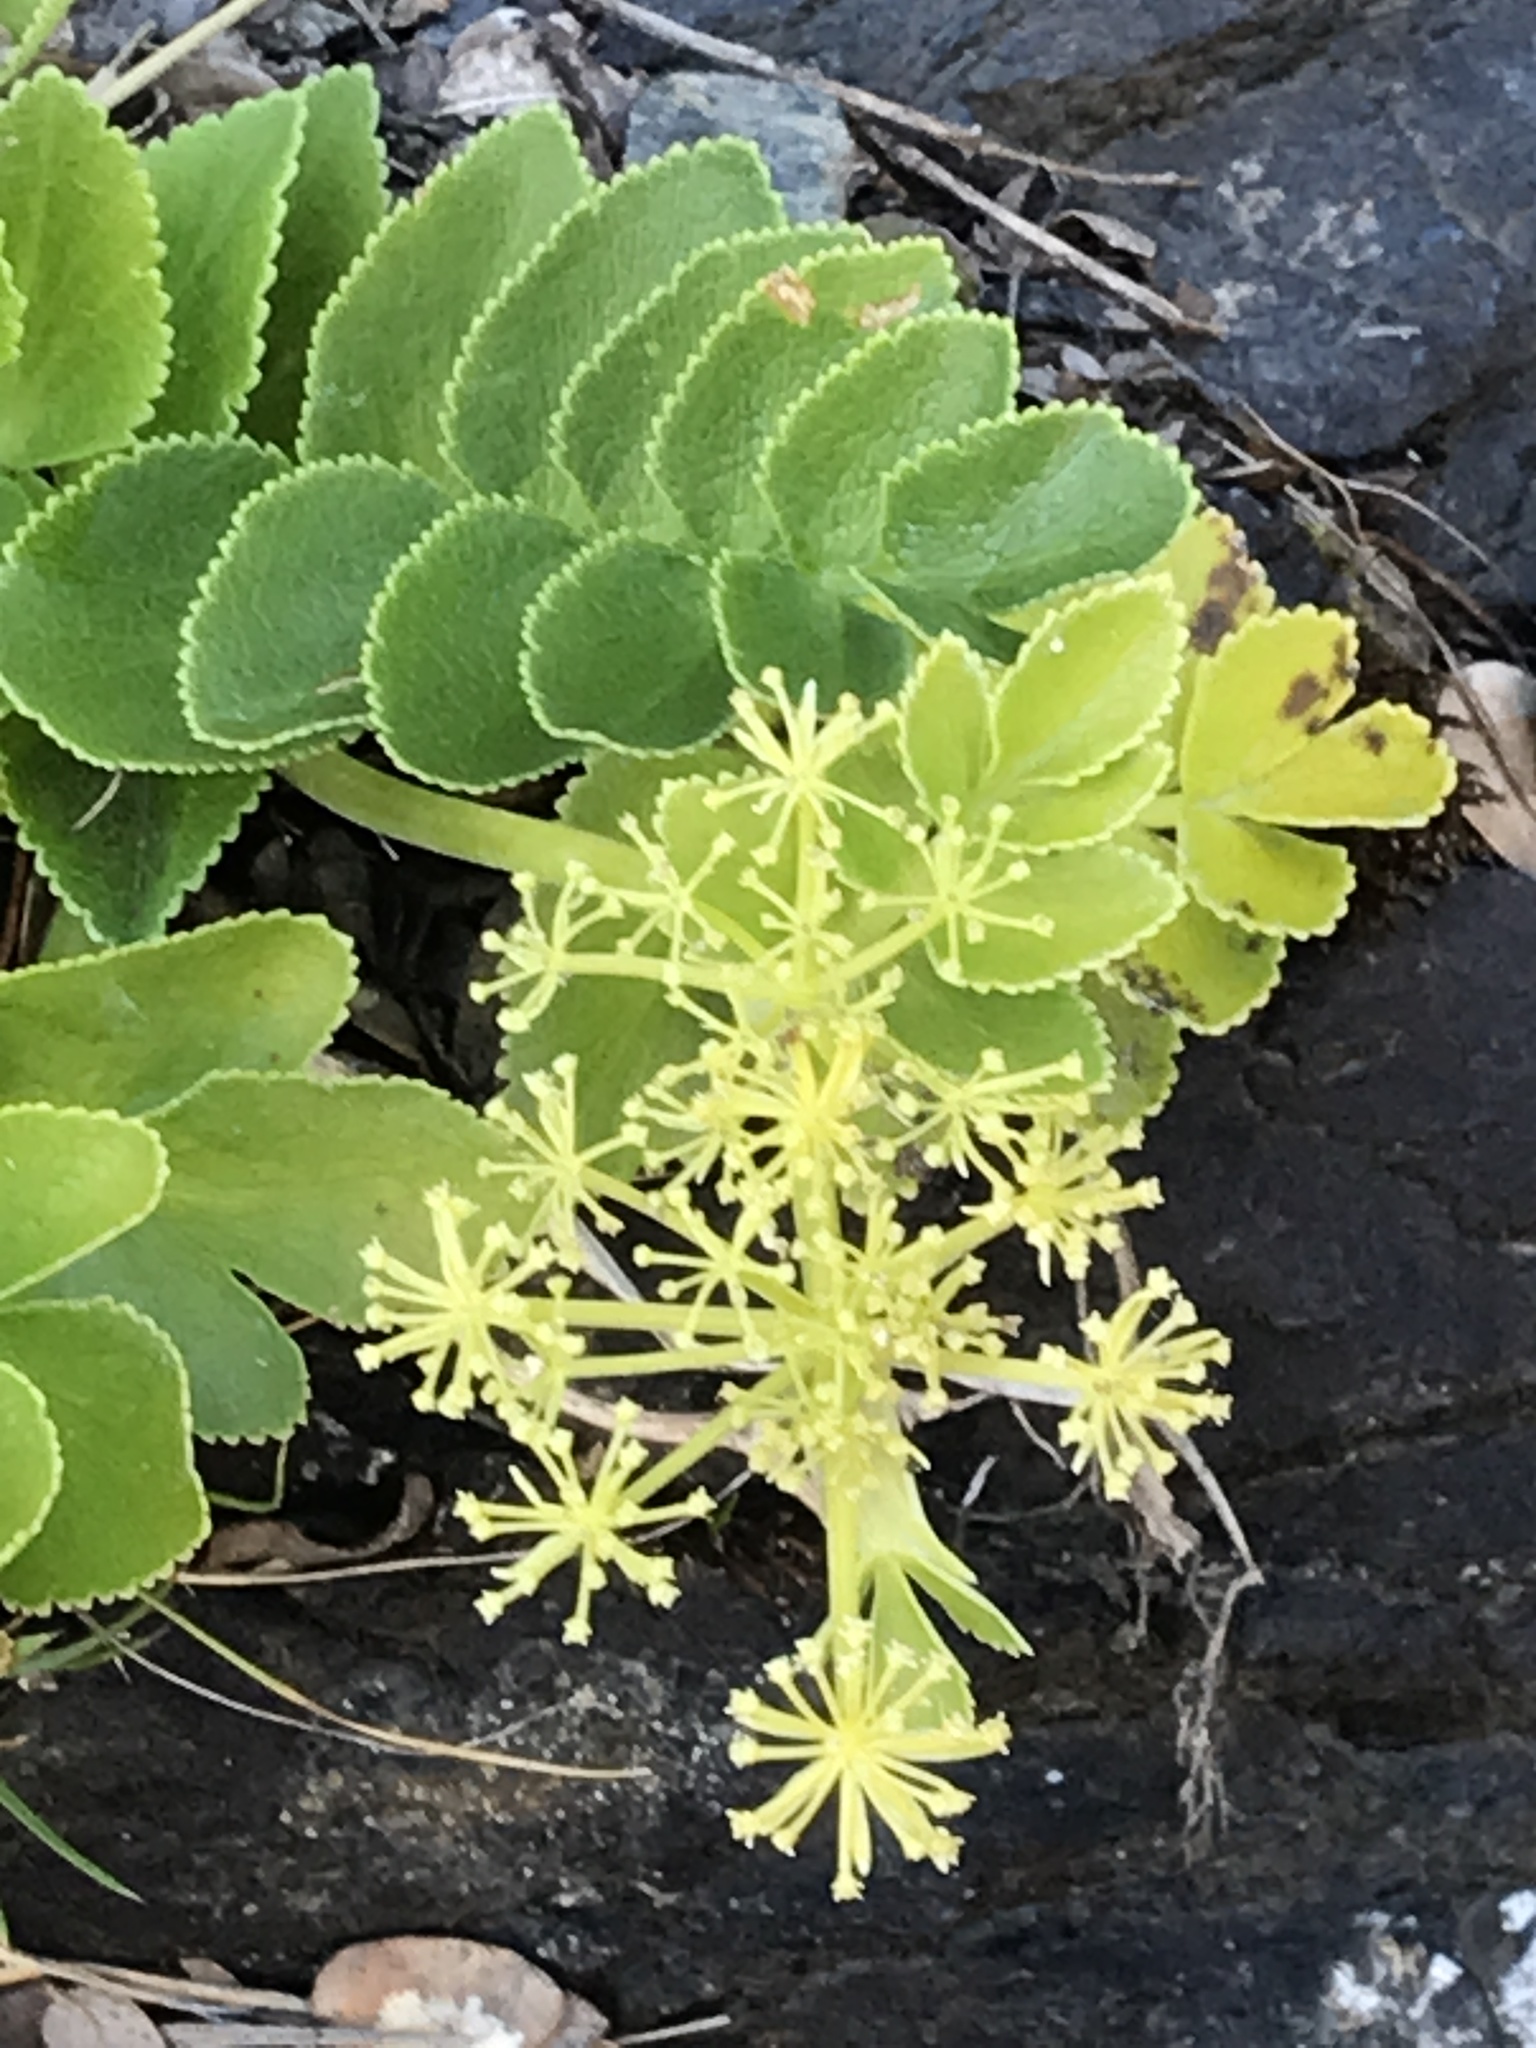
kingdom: Plantae
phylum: Tracheophyta
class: Magnoliopsida
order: Apiales
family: Apiaceae
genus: Gingidia
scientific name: Gingidia montana
